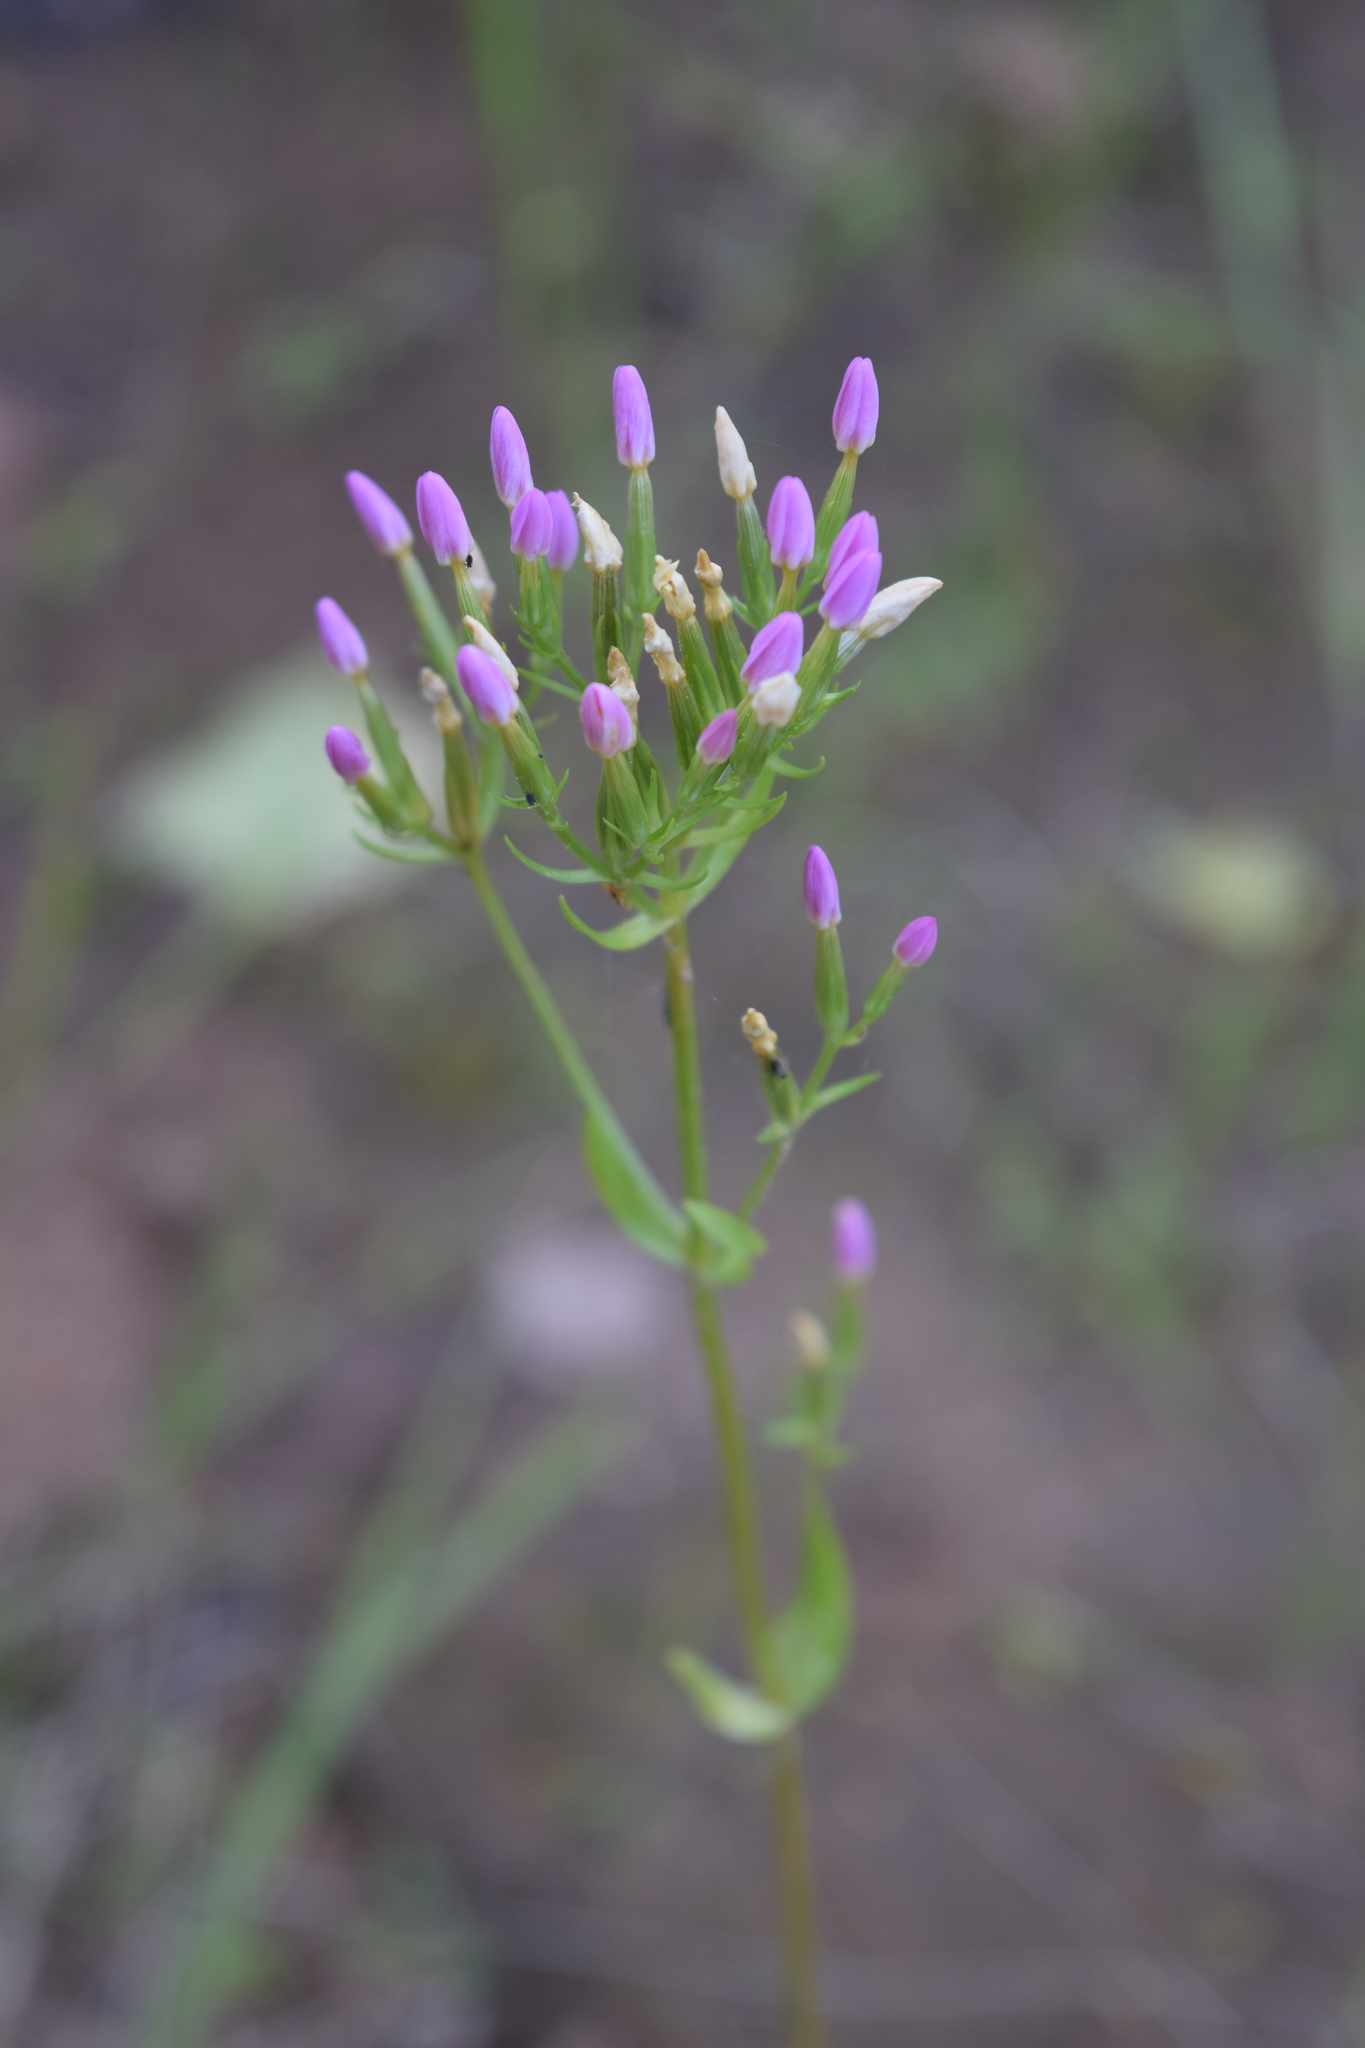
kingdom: Plantae
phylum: Tracheophyta
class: Magnoliopsida
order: Gentianales
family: Gentianaceae
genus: Centaurium
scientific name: Centaurium erythraea
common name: Common centaury
